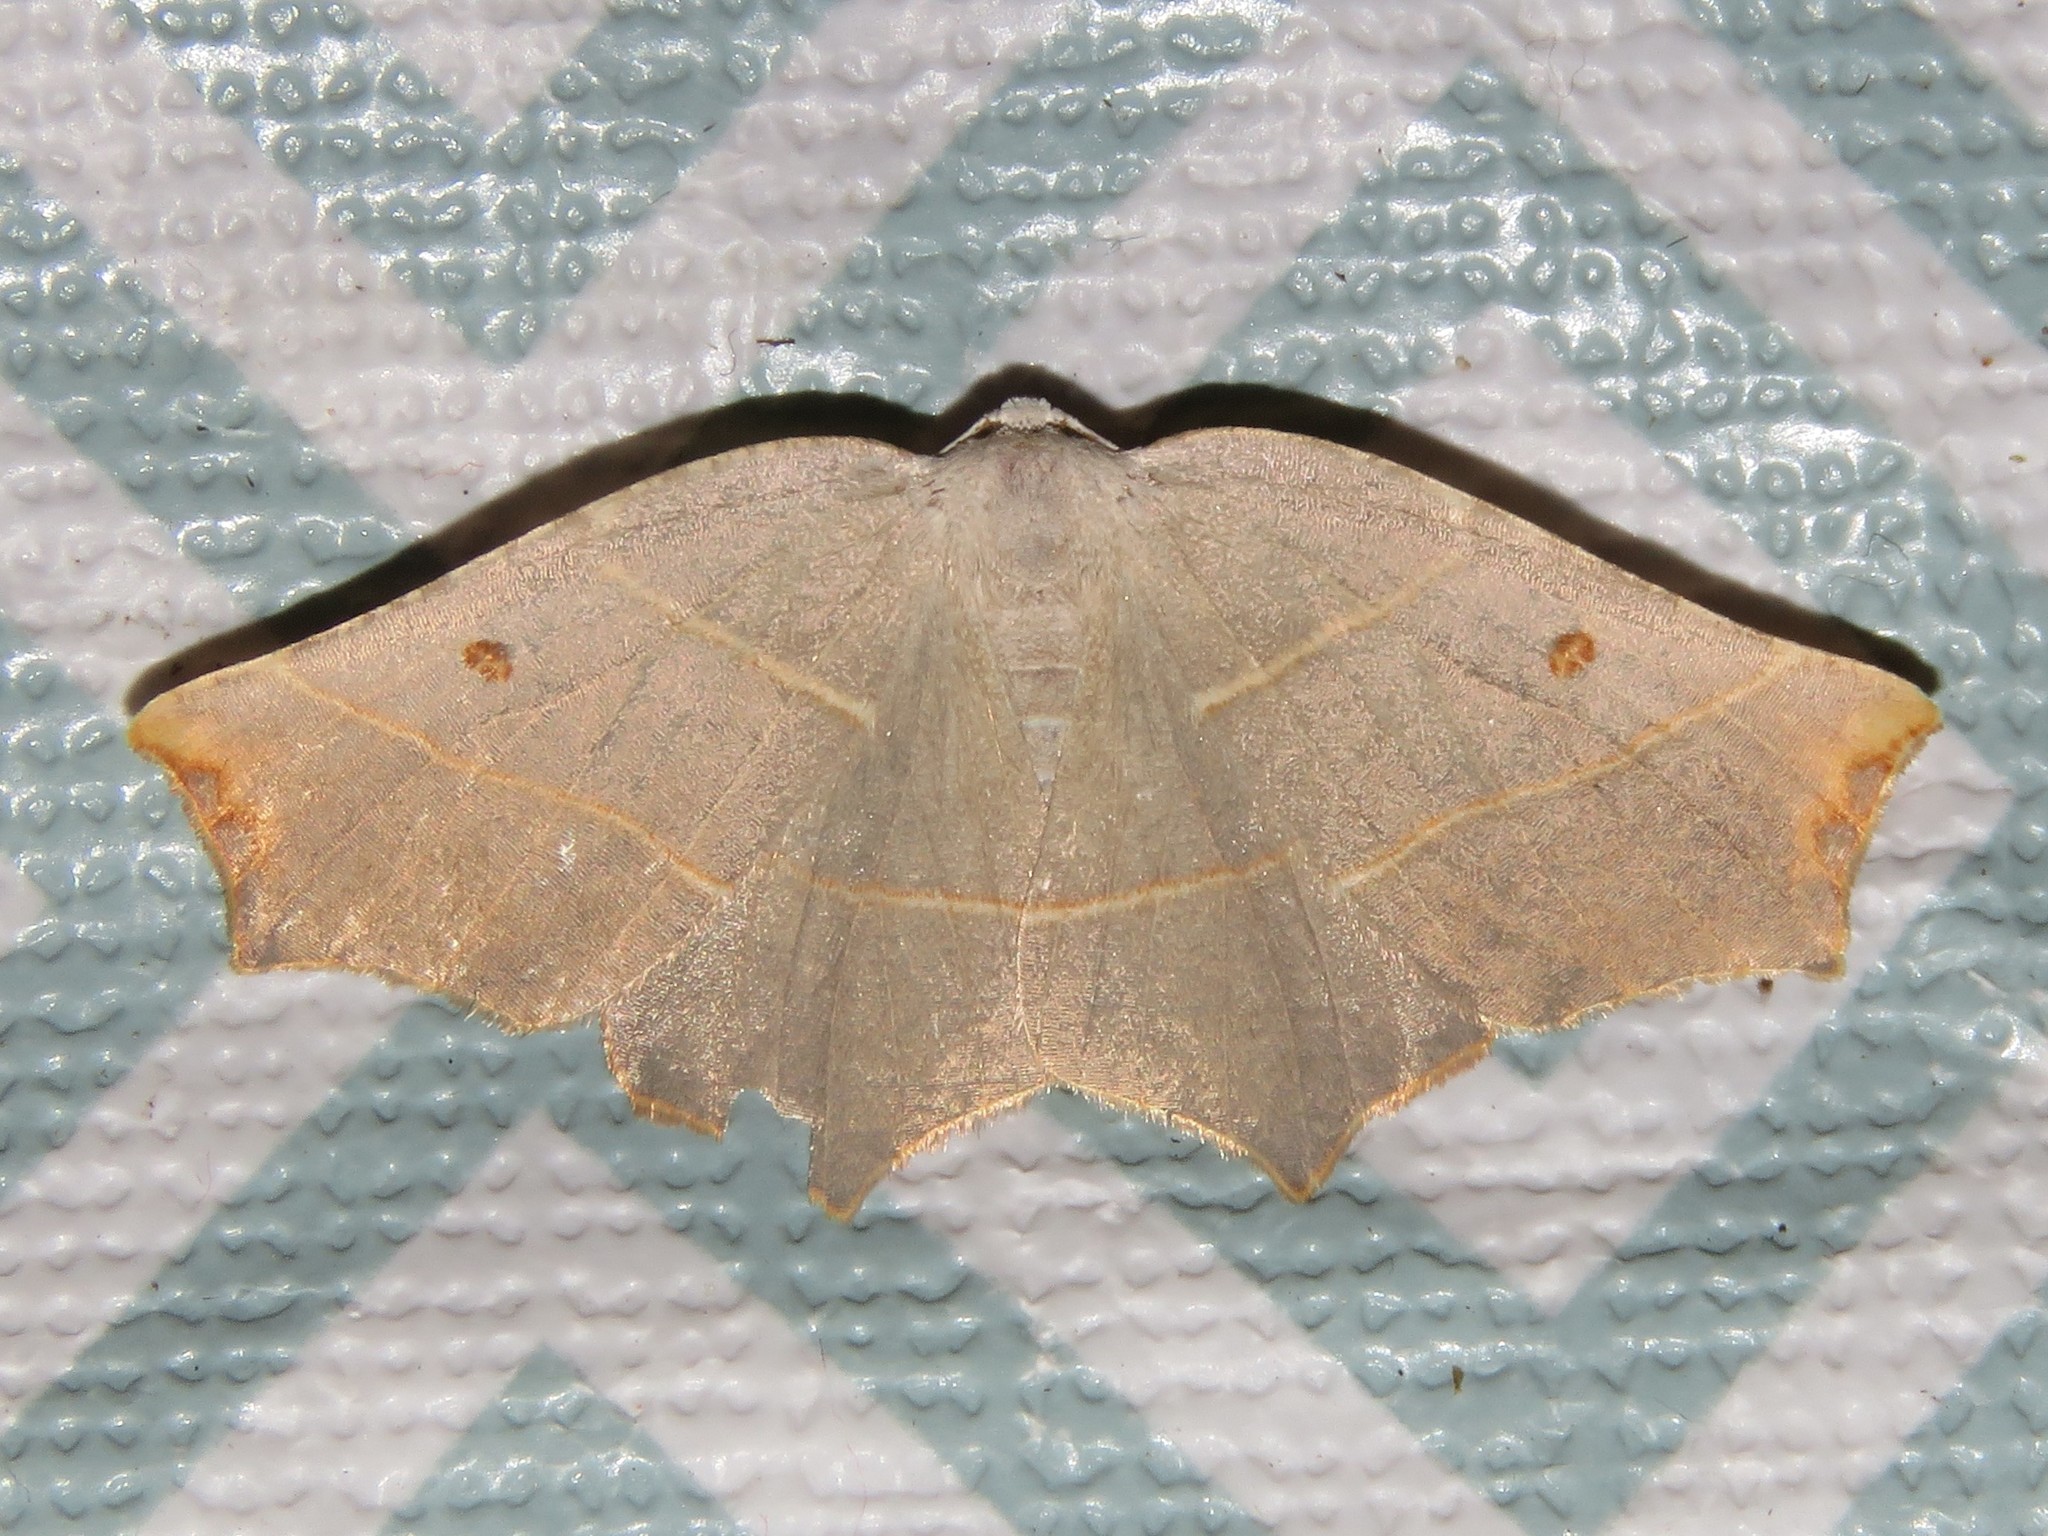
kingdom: Animalia
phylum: Arthropoda
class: Insecta
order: Lepidoptera
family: Geometridae
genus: Metanema
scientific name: Metanema inatomaria
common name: Pale metanema
